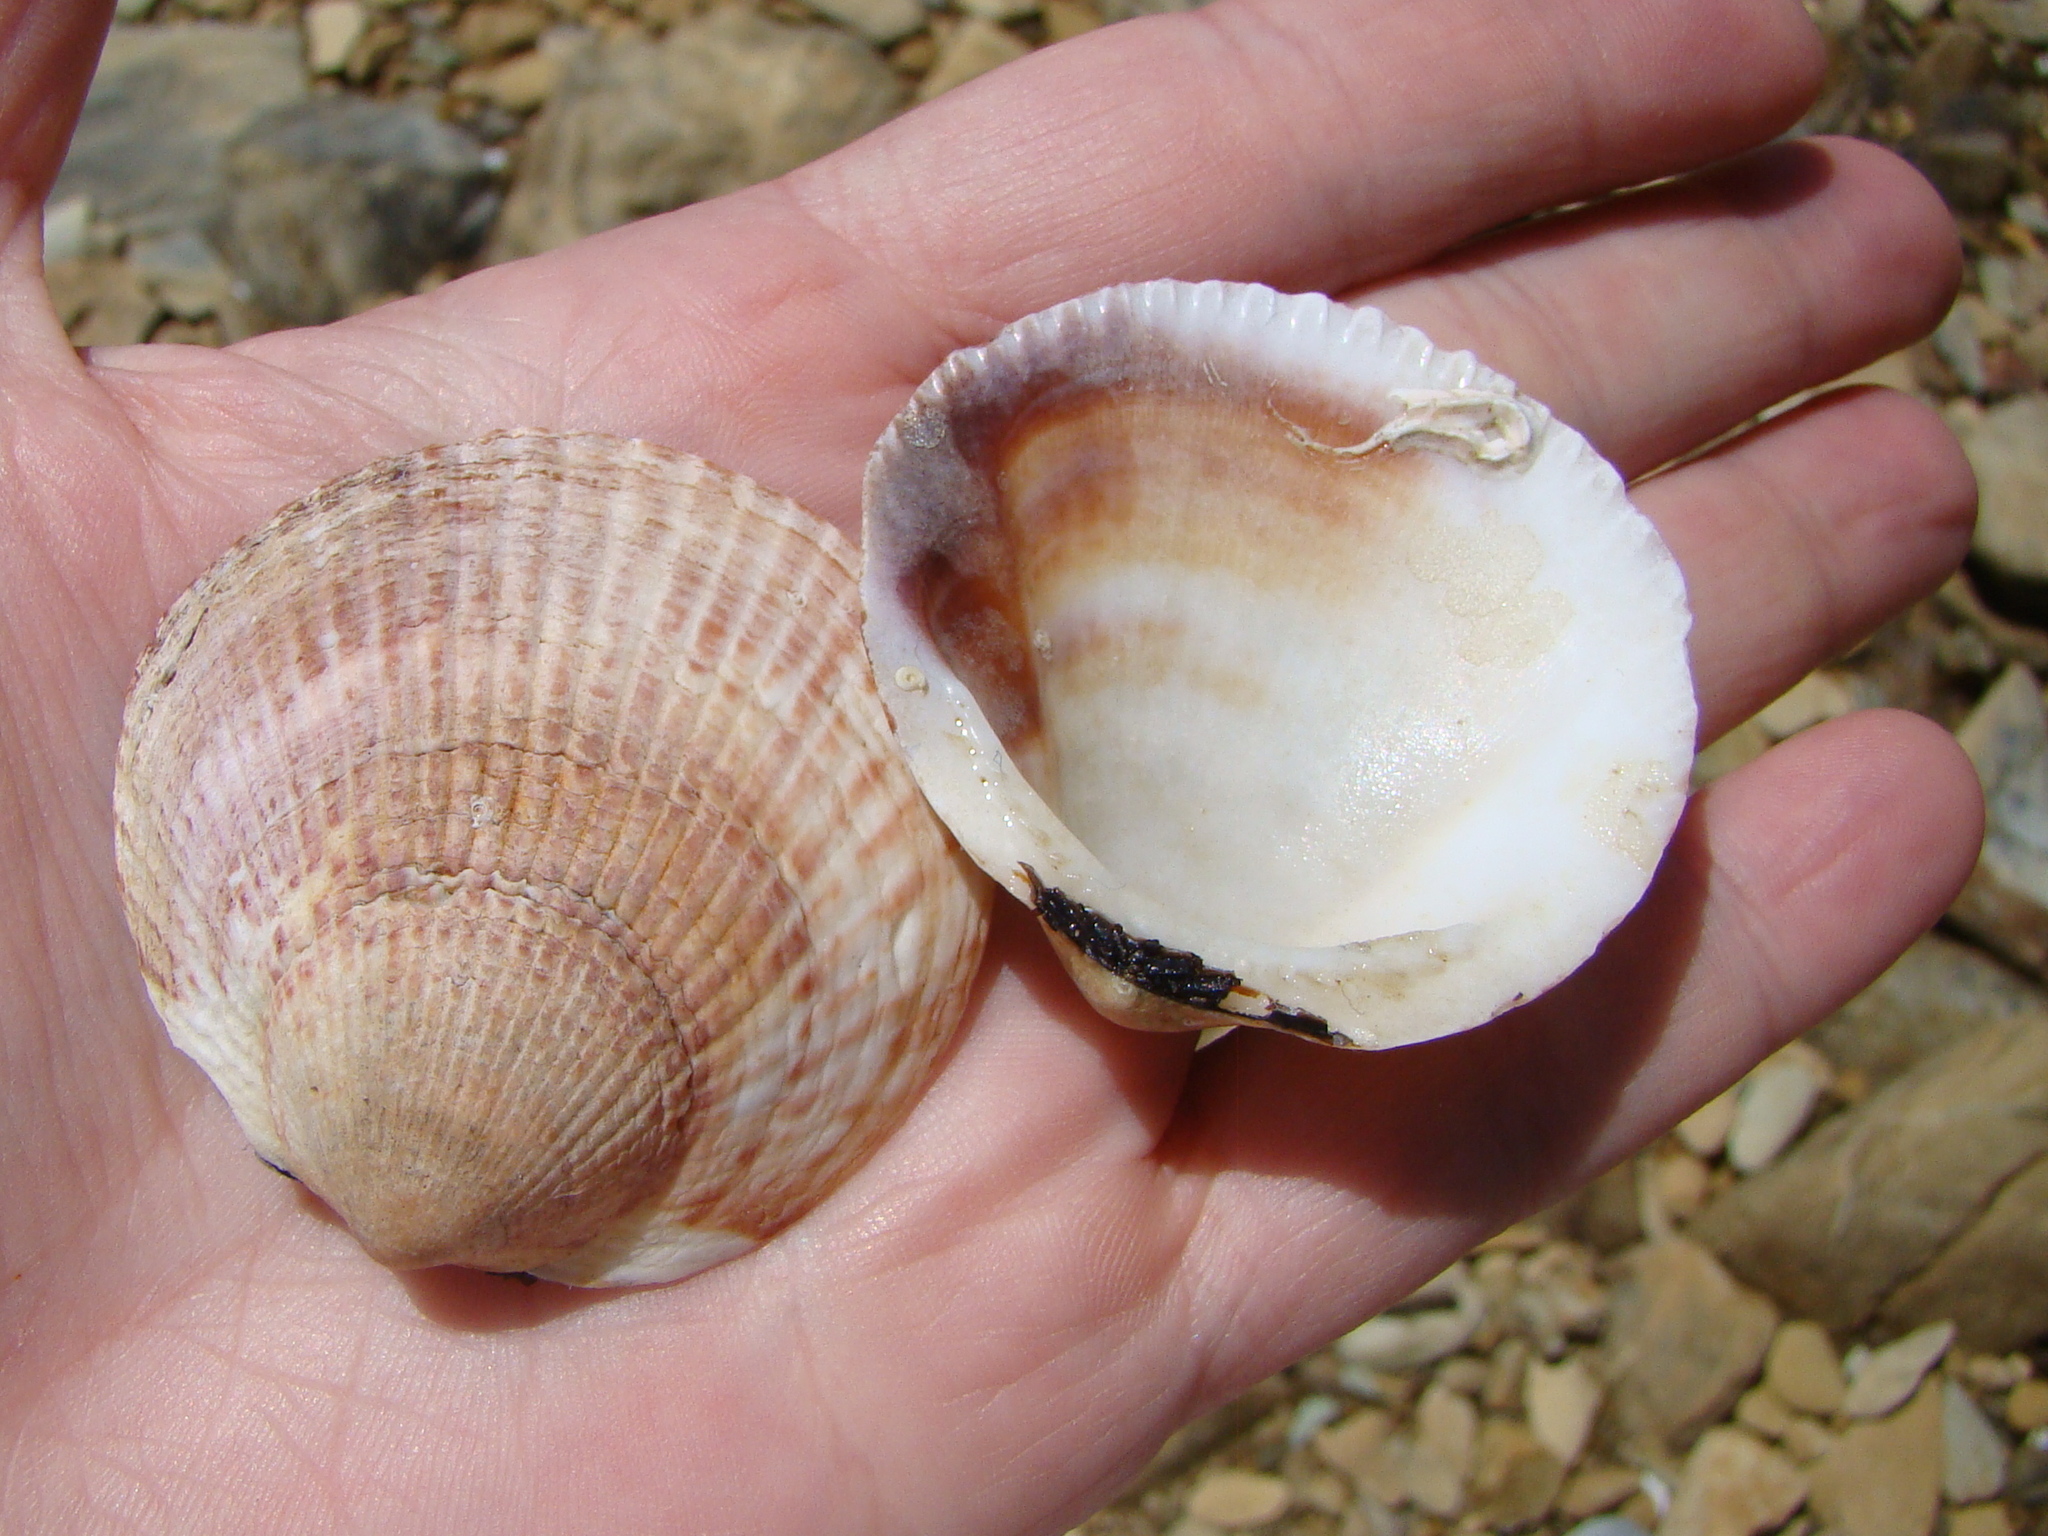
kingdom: Animalia
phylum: Mollusca
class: Bivalvia
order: Arcida
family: Glycymerididae
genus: Tucetona
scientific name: Tucetona laticostata
